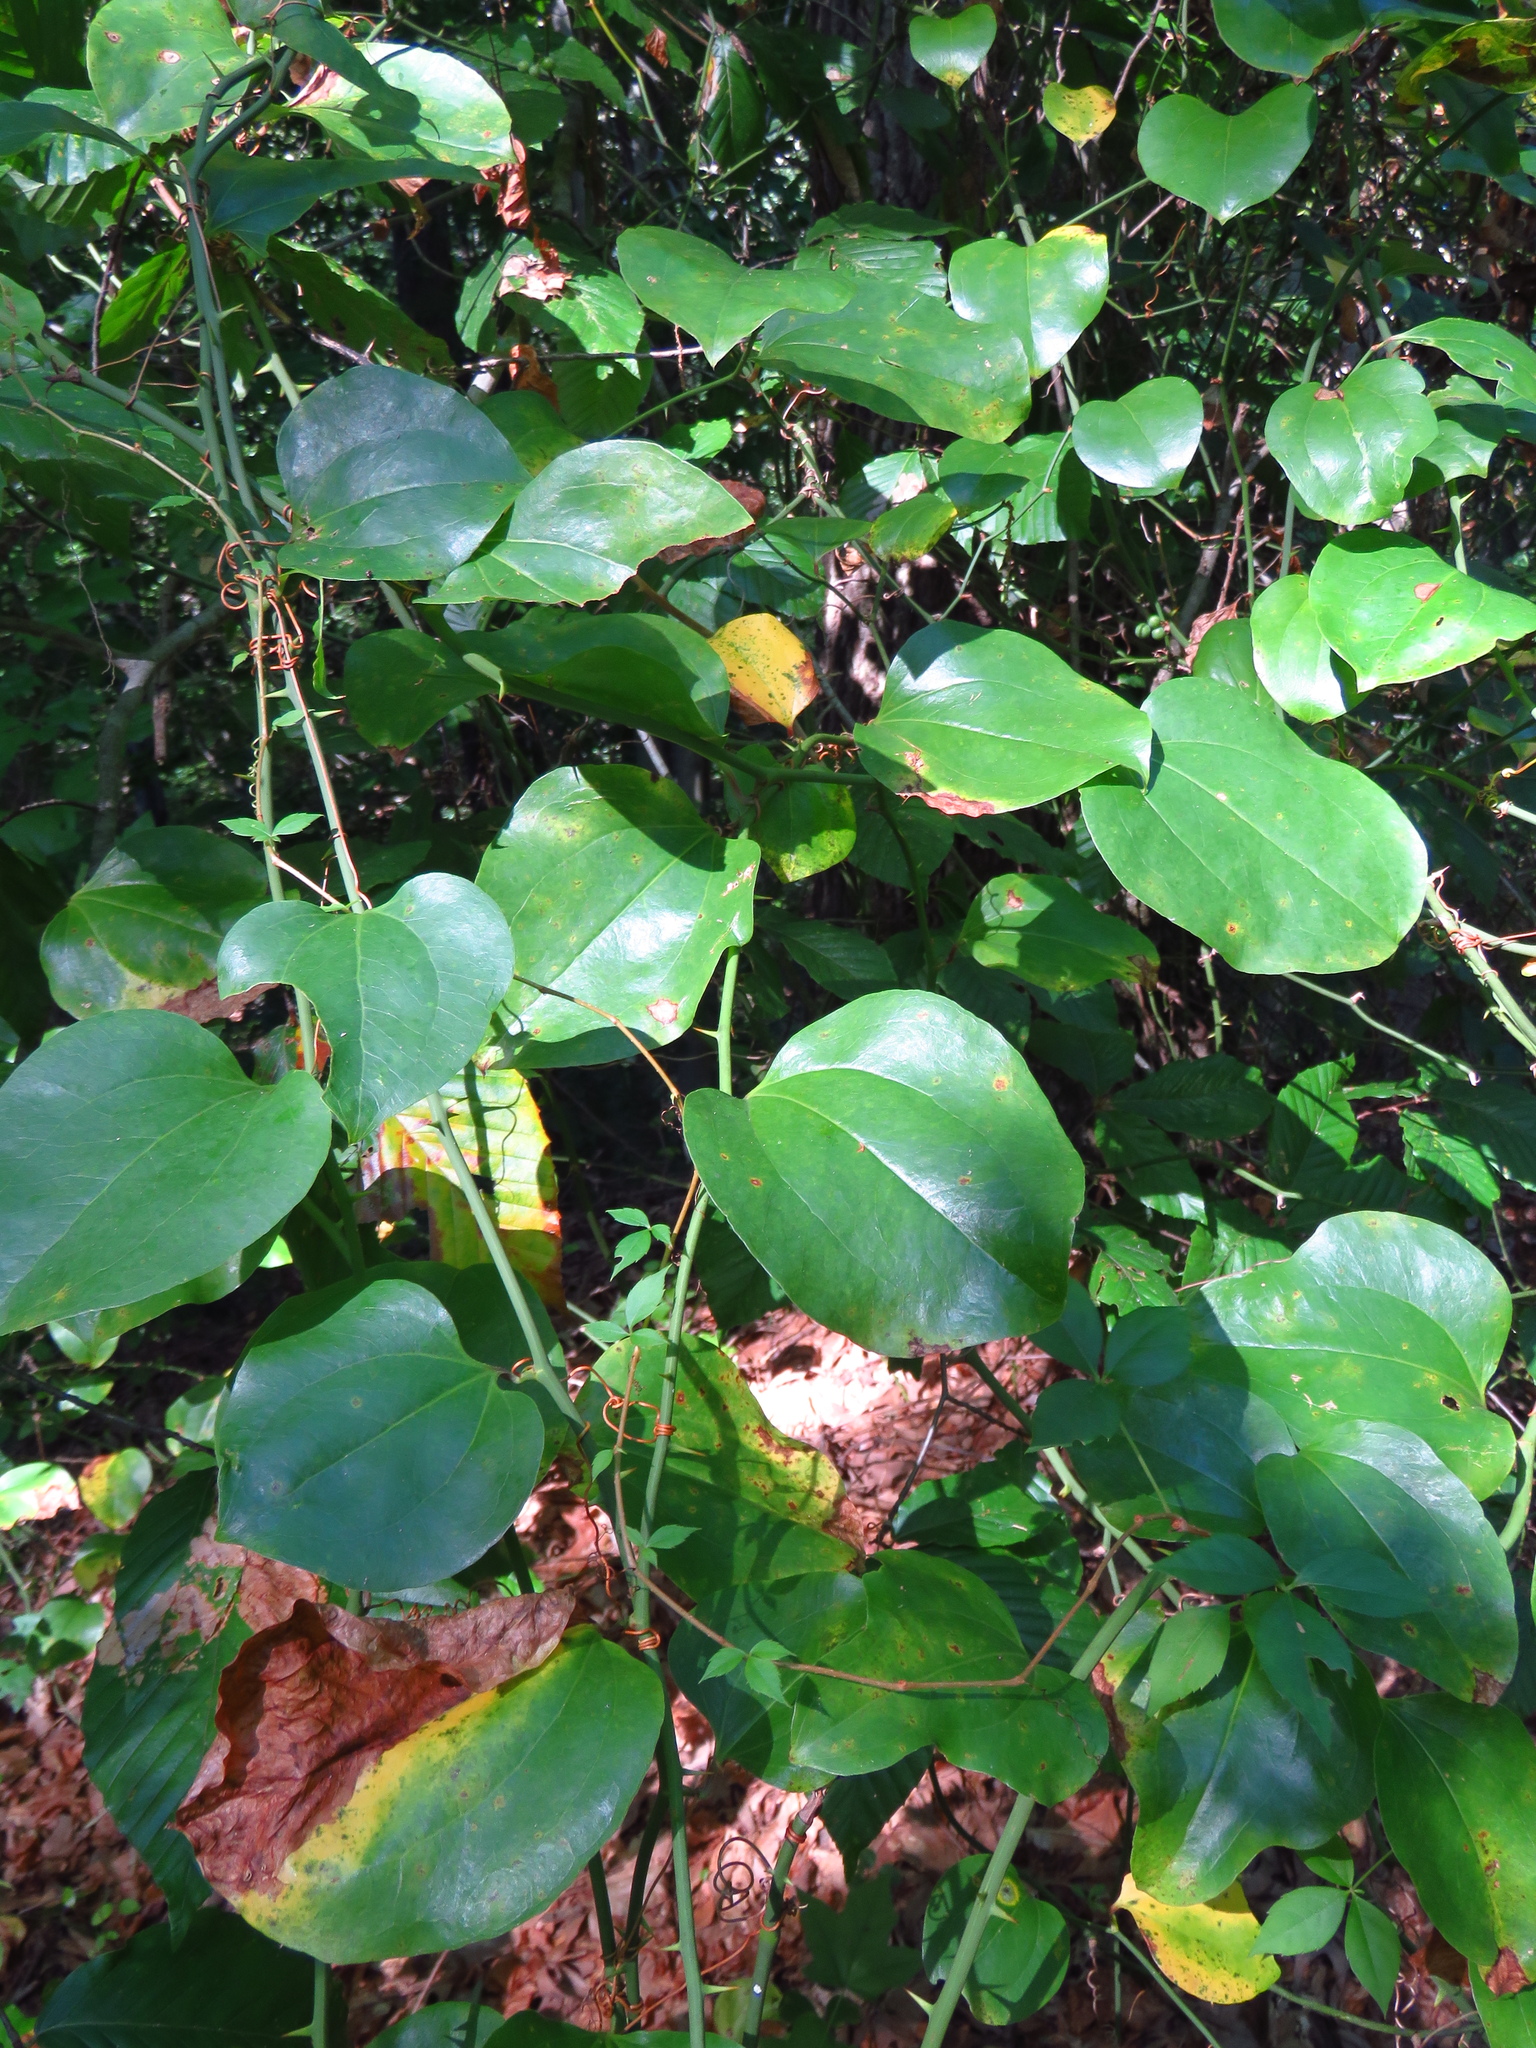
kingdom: Plantae
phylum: Tracheophyta
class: Liliopsida
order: Liliales
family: Smilacaceae
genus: Smilax
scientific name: Smilax rotundifolia
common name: Bullbriar
